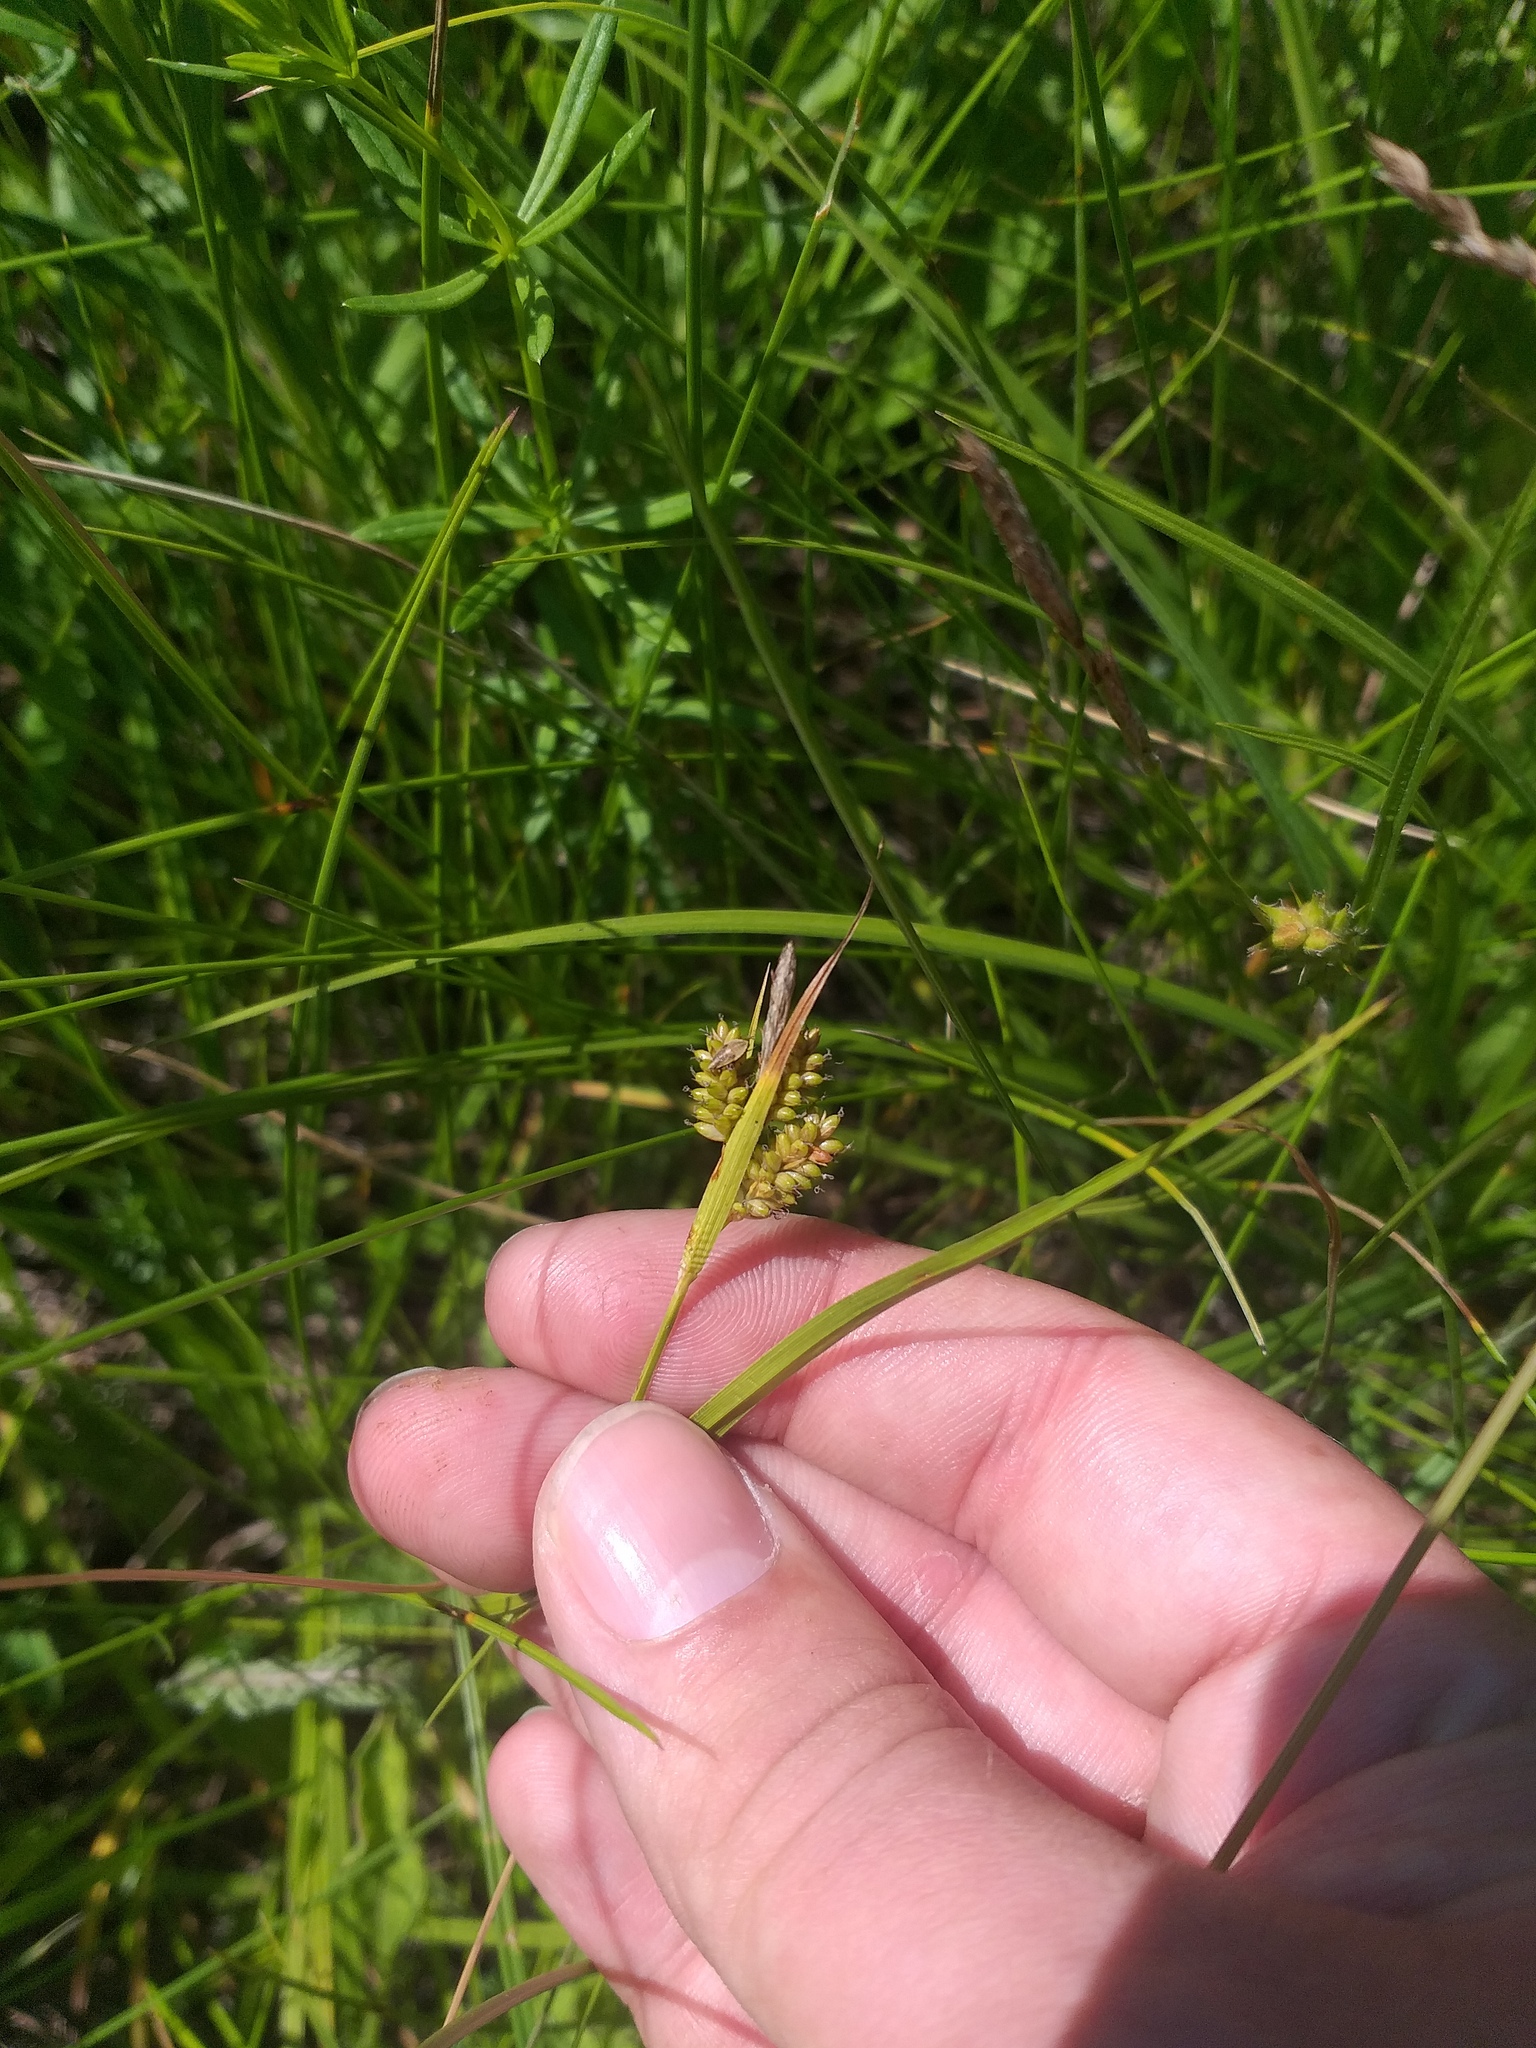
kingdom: Plantae
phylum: Tracheophyta
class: Liliopsida
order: Poales
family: Cyperaceae
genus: Carex
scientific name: Carex pallescens
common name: Pale sedge
